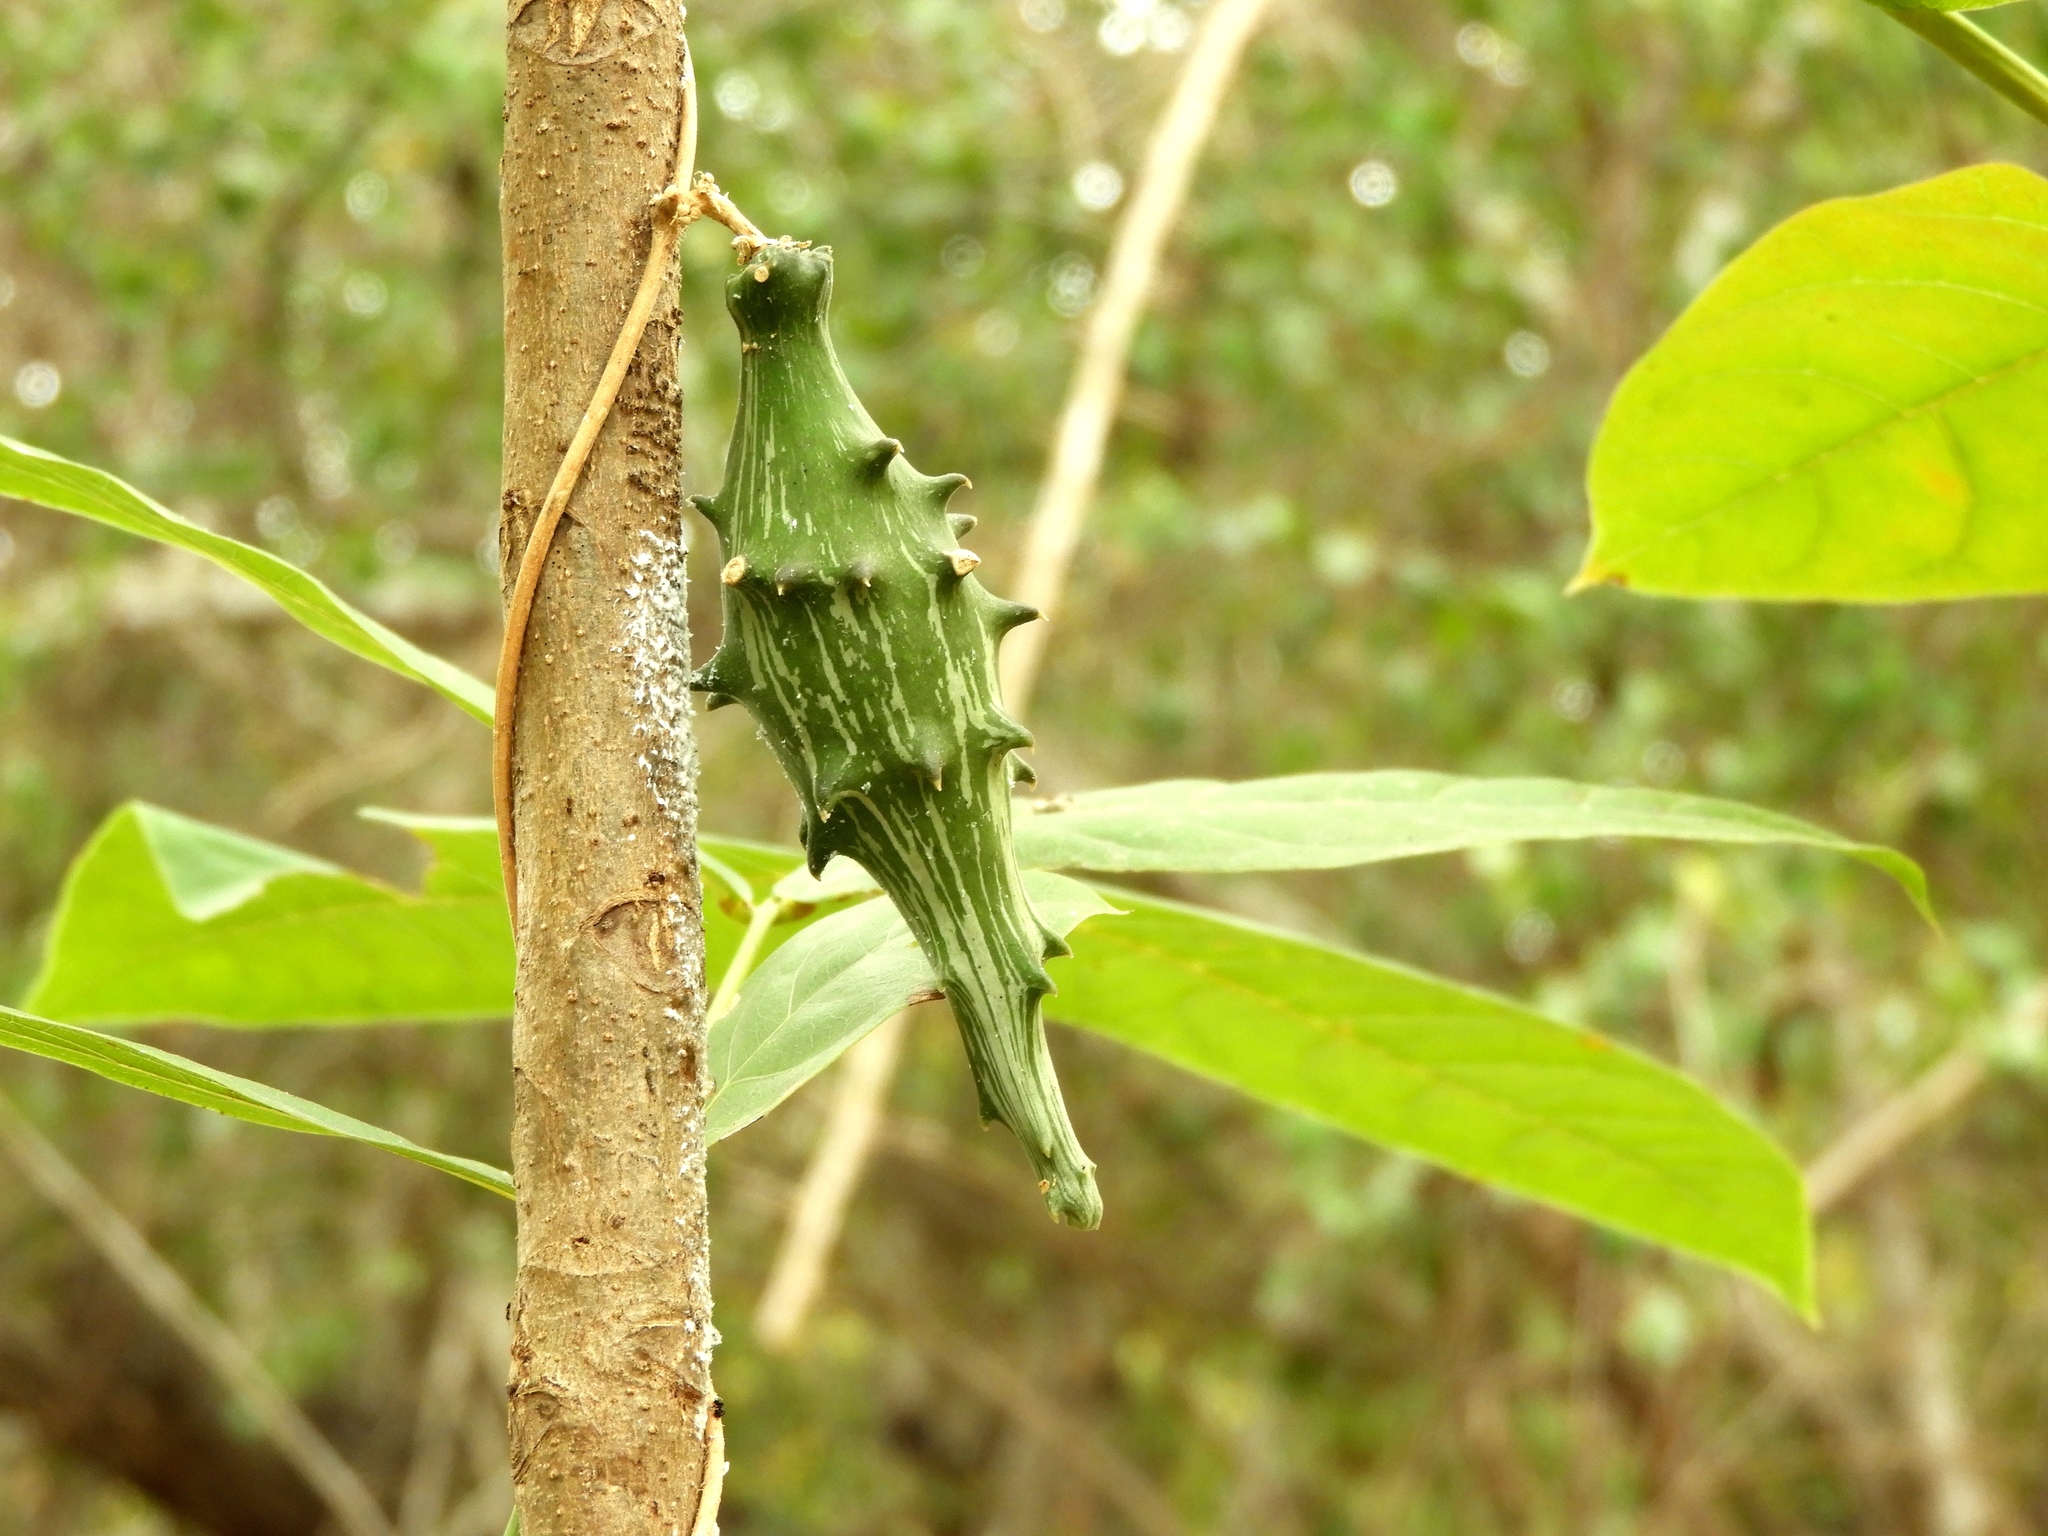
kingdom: Plantae
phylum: Tracheophyta
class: Magnoliopsida
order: Gentianales
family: Apocynaceae
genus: Dictyanthus
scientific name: Dictyanthus sepicola
